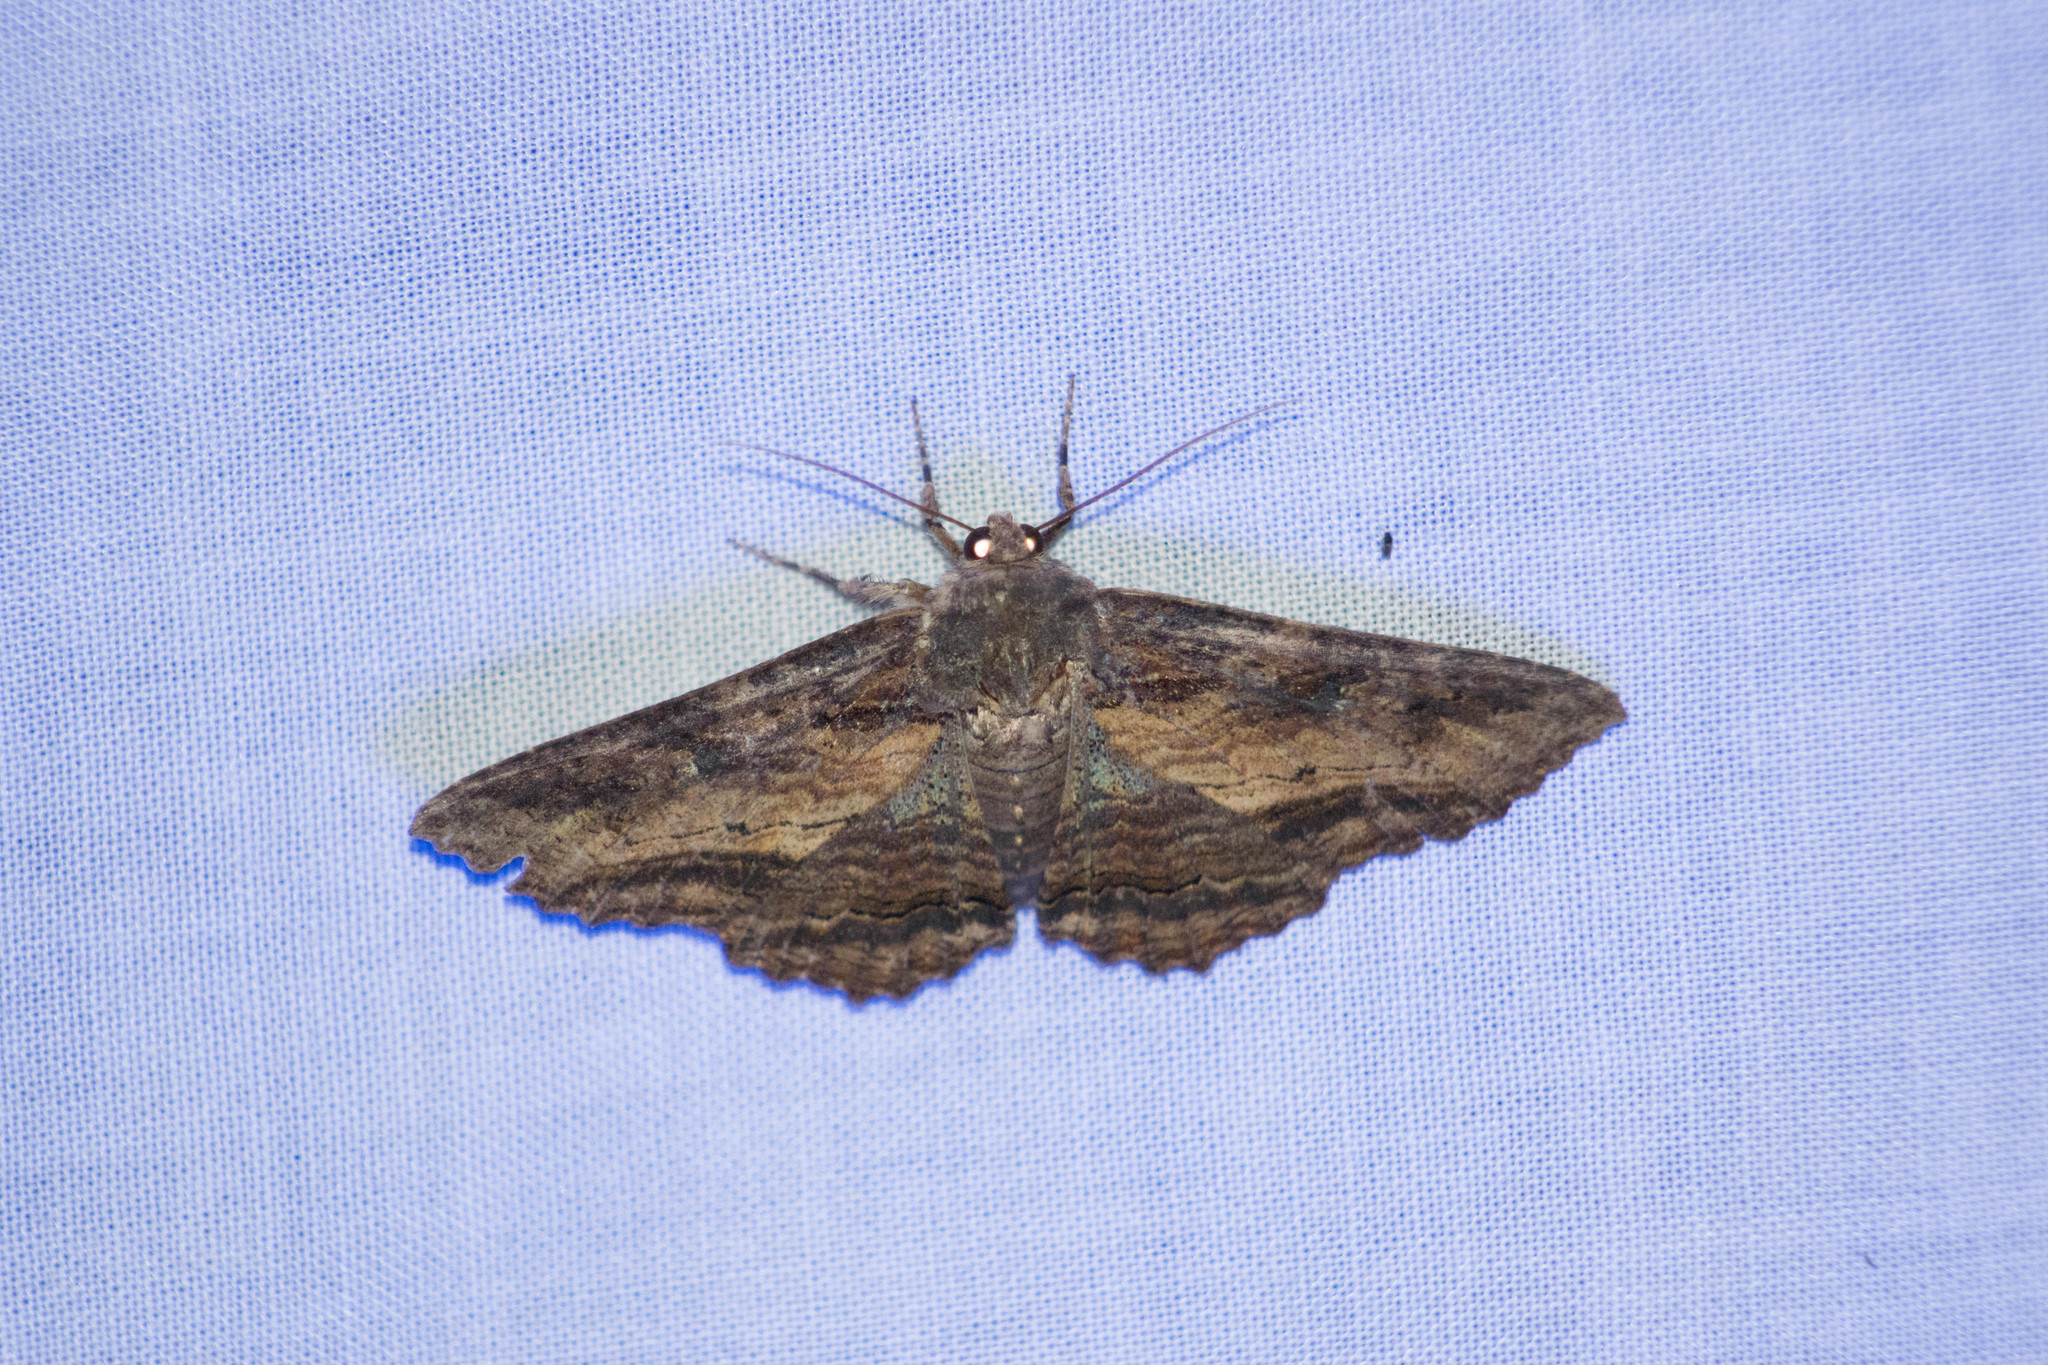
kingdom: Animalia
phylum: Arthropoda
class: Insecta
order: Lepidoptera
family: Erebidae
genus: Zale
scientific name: Zale lunata
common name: Lunate zale moth
